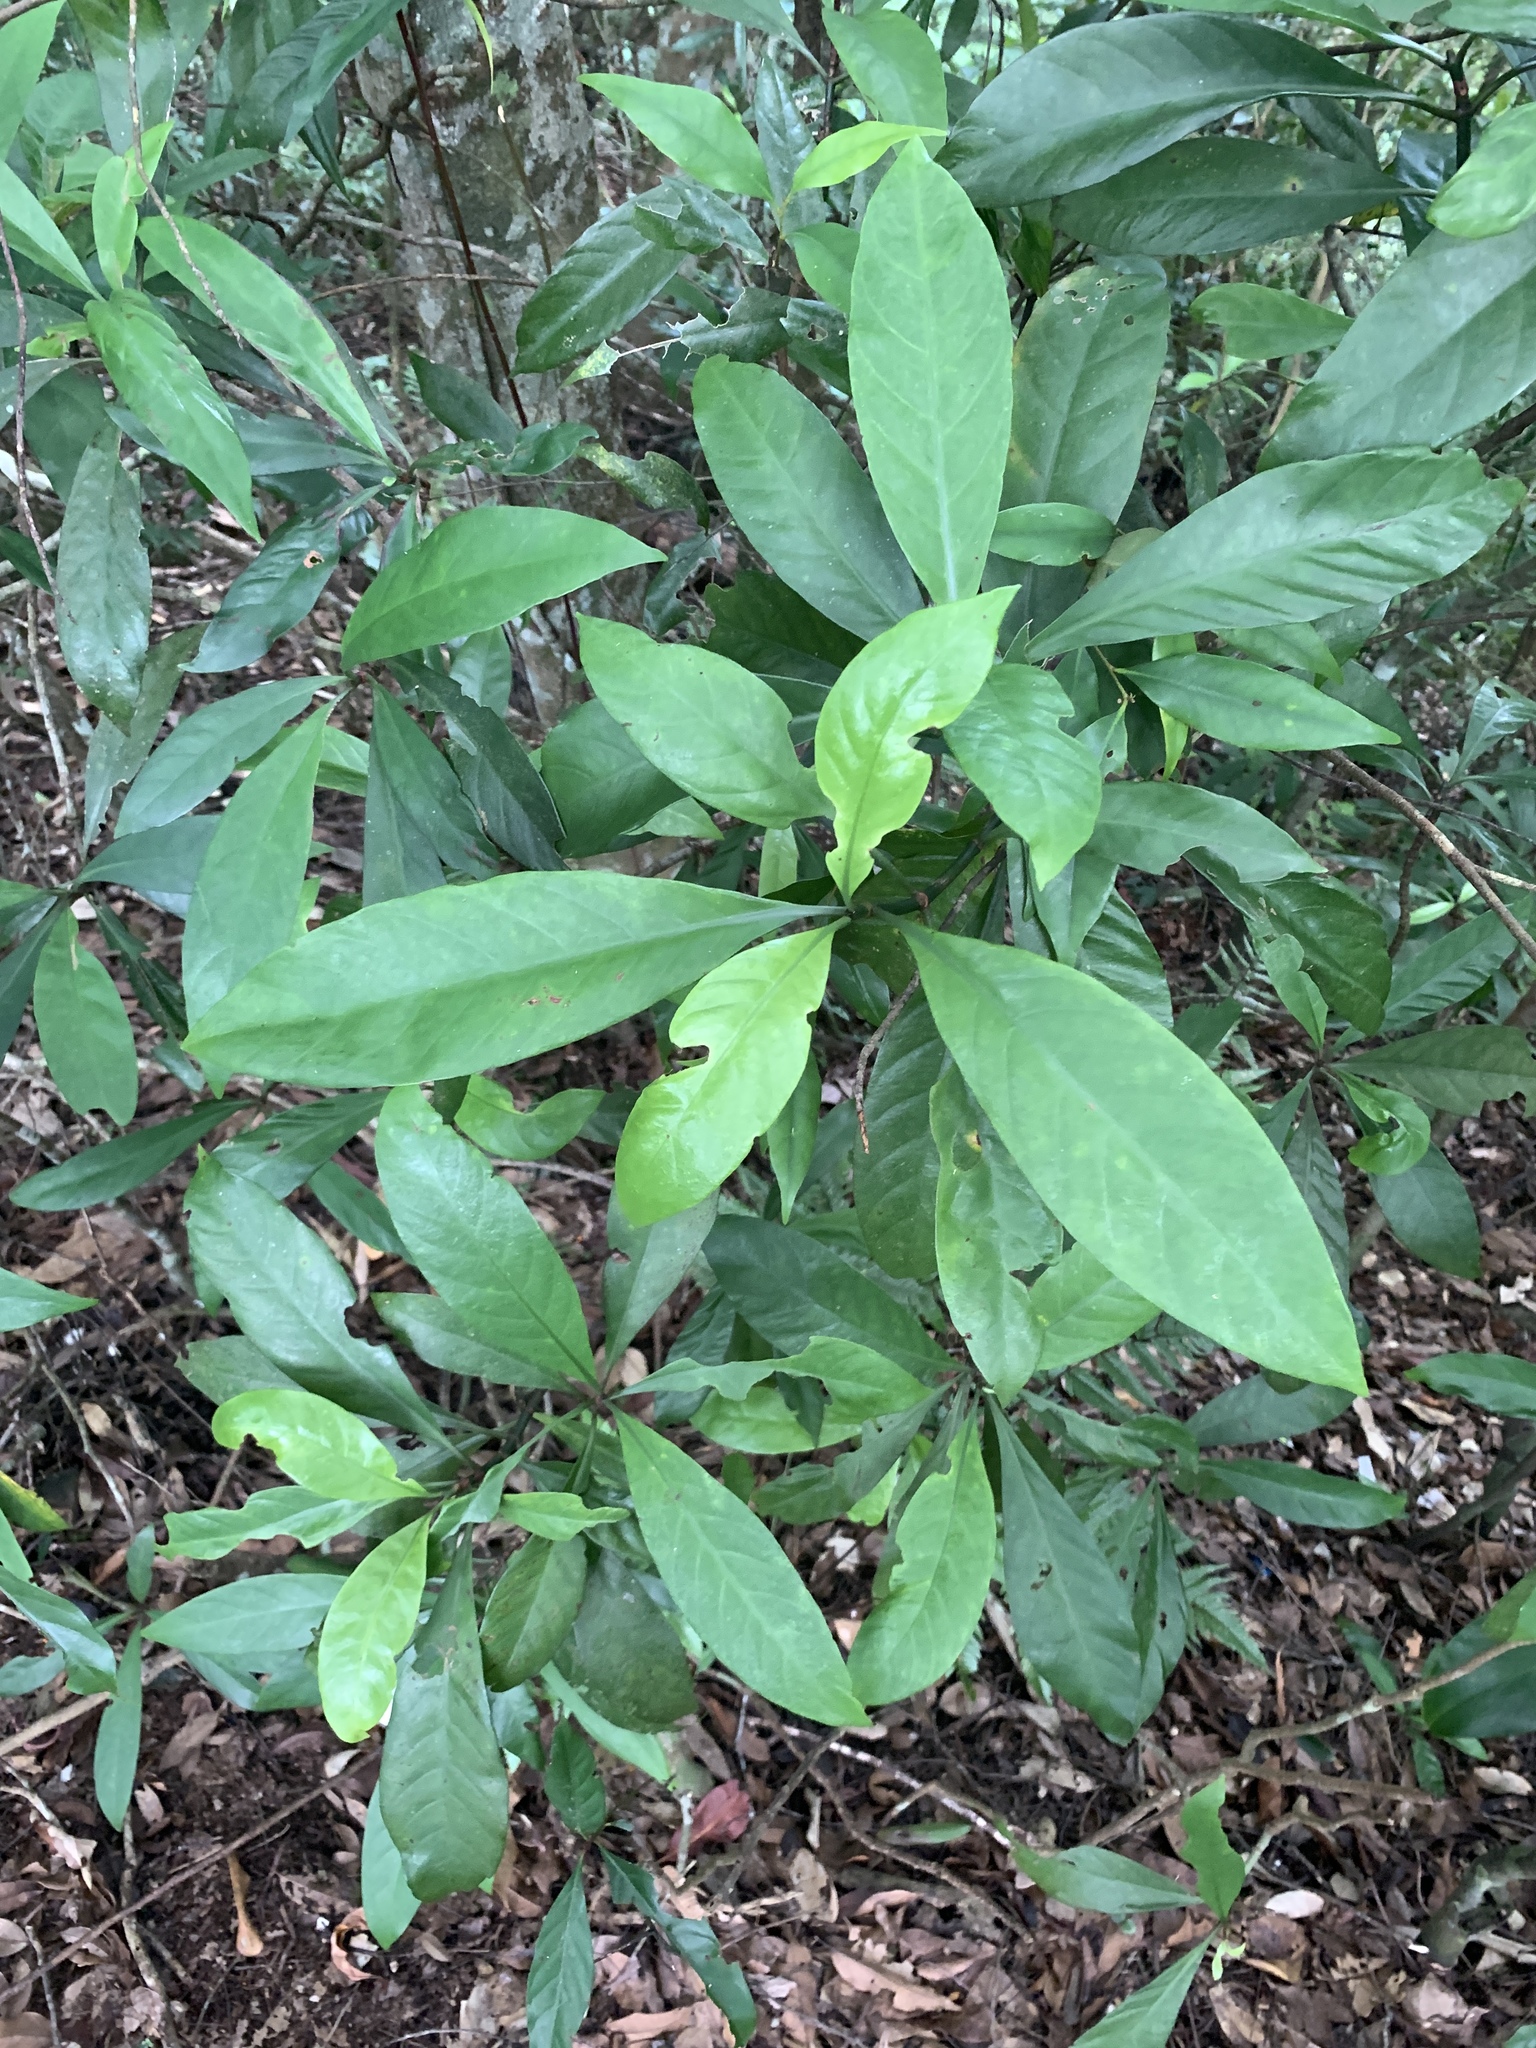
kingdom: Plantae
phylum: Tracheophyta
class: Magnoliopsida
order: Gentianales
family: Rubiaceae
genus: Psychotria
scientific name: Psychotria asiatica
